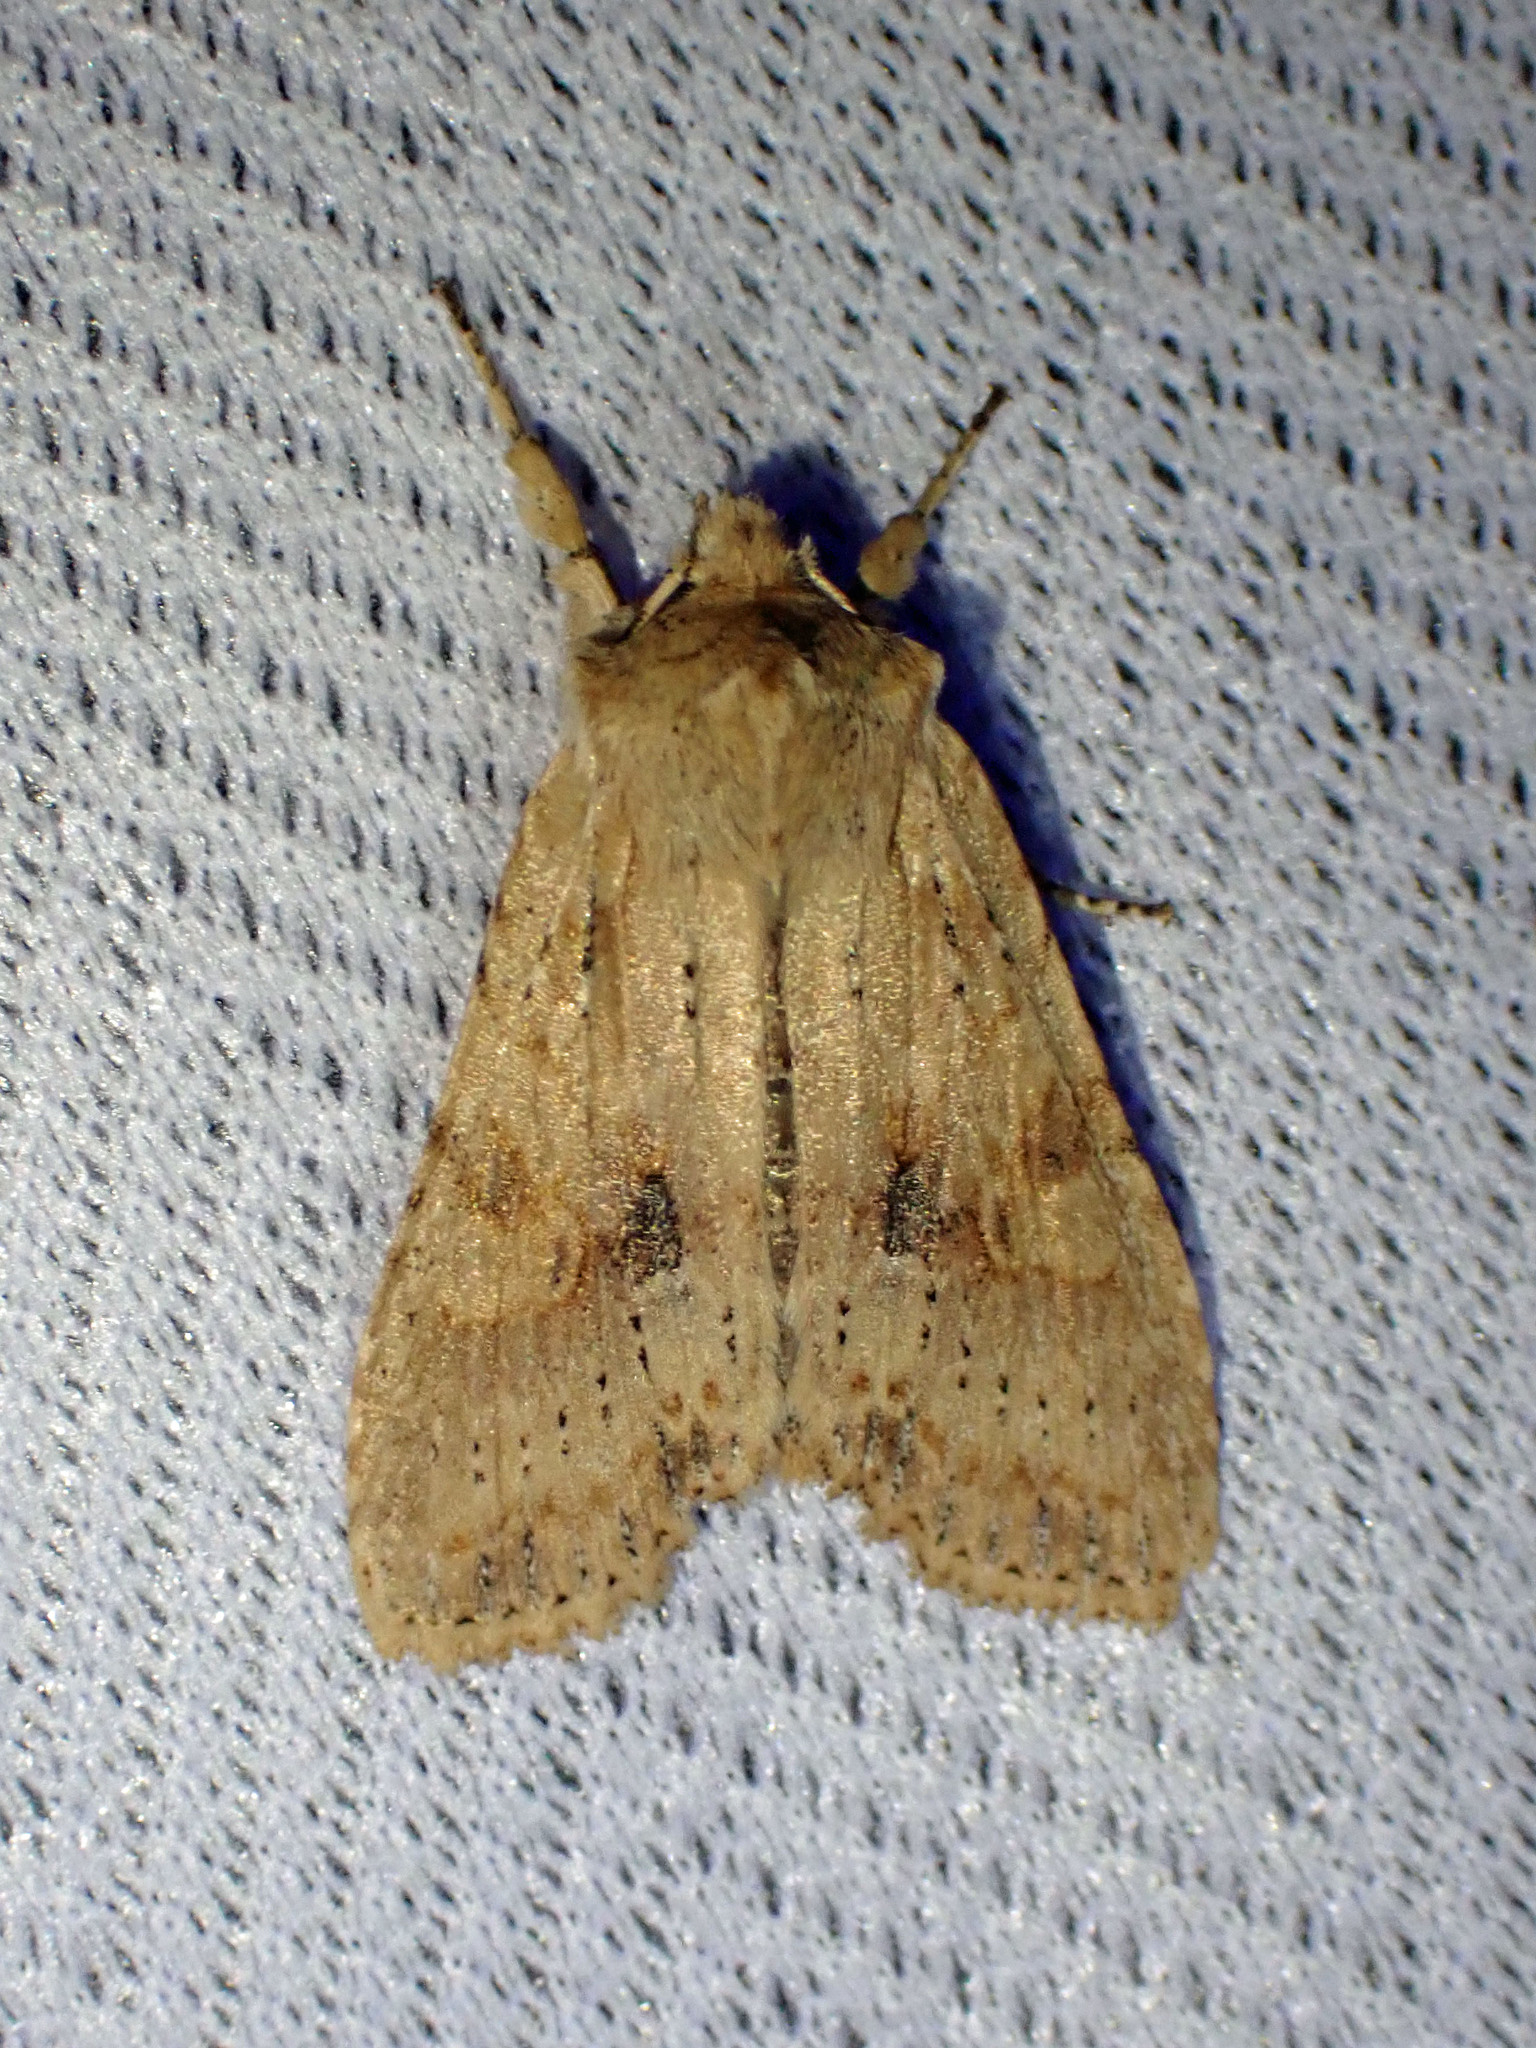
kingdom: Animalia
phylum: Arthropoda
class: Insecta
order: Lepidoptera
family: Noctuidae
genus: Lithophane
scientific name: Lithophane innominata
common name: Nameless pinion moth
